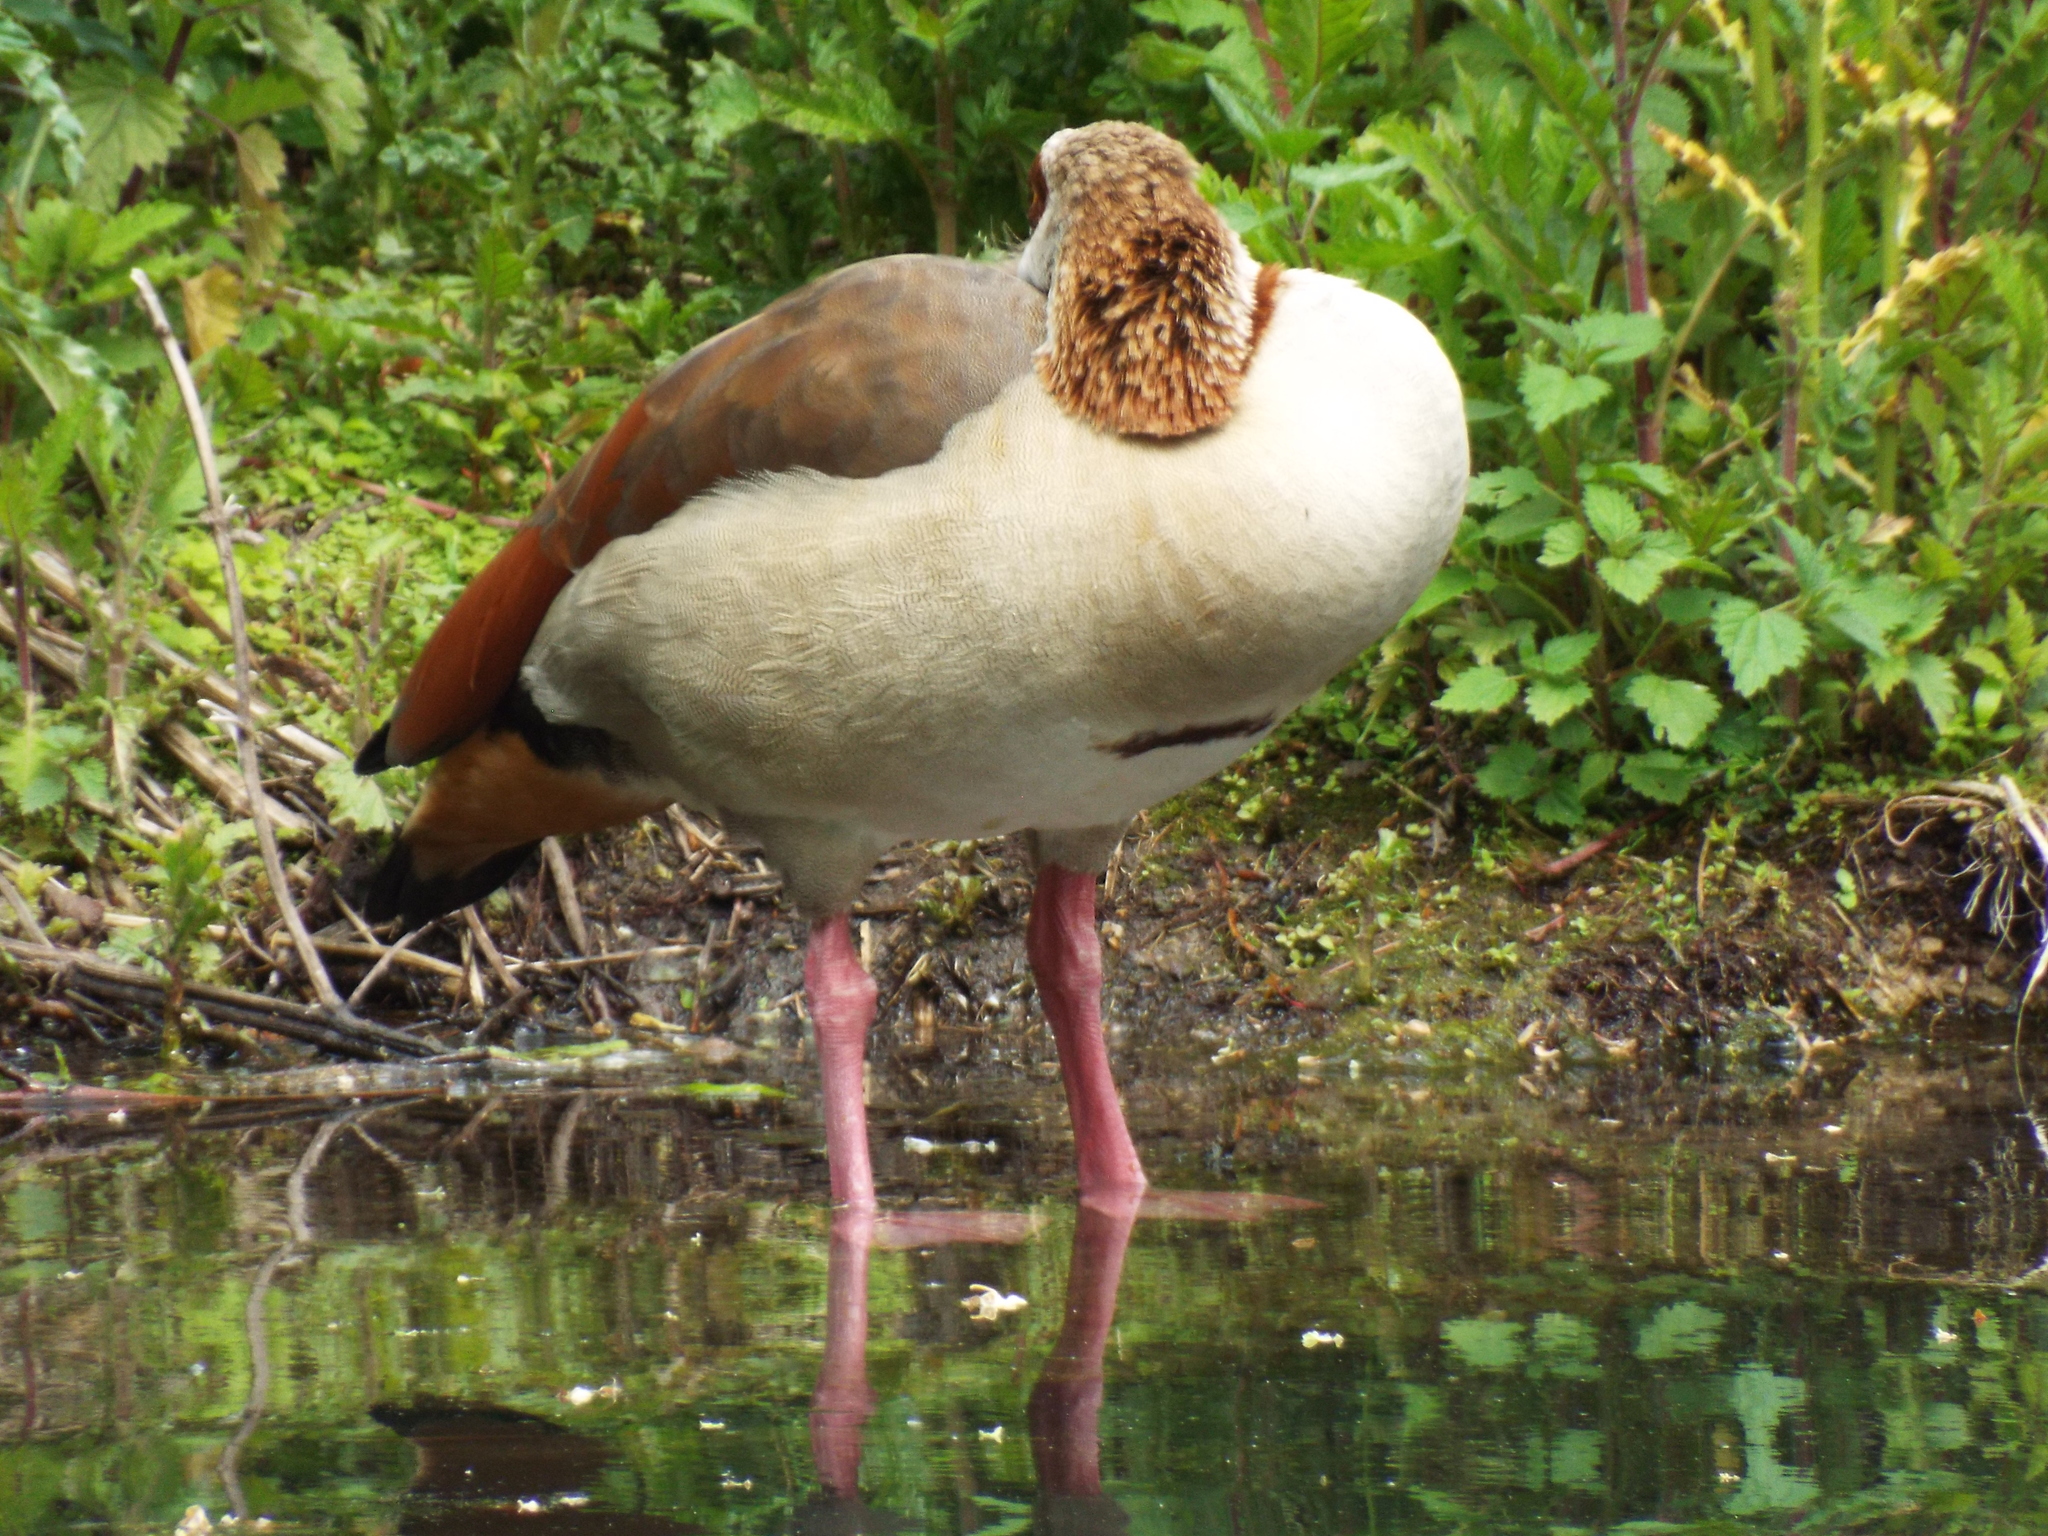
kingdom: Animalia
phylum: Chordata
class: Aves
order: Anseriformes
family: Anatidae
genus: Alopochen
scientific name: Alopochen aegyptiaca
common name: Egyptian goose
